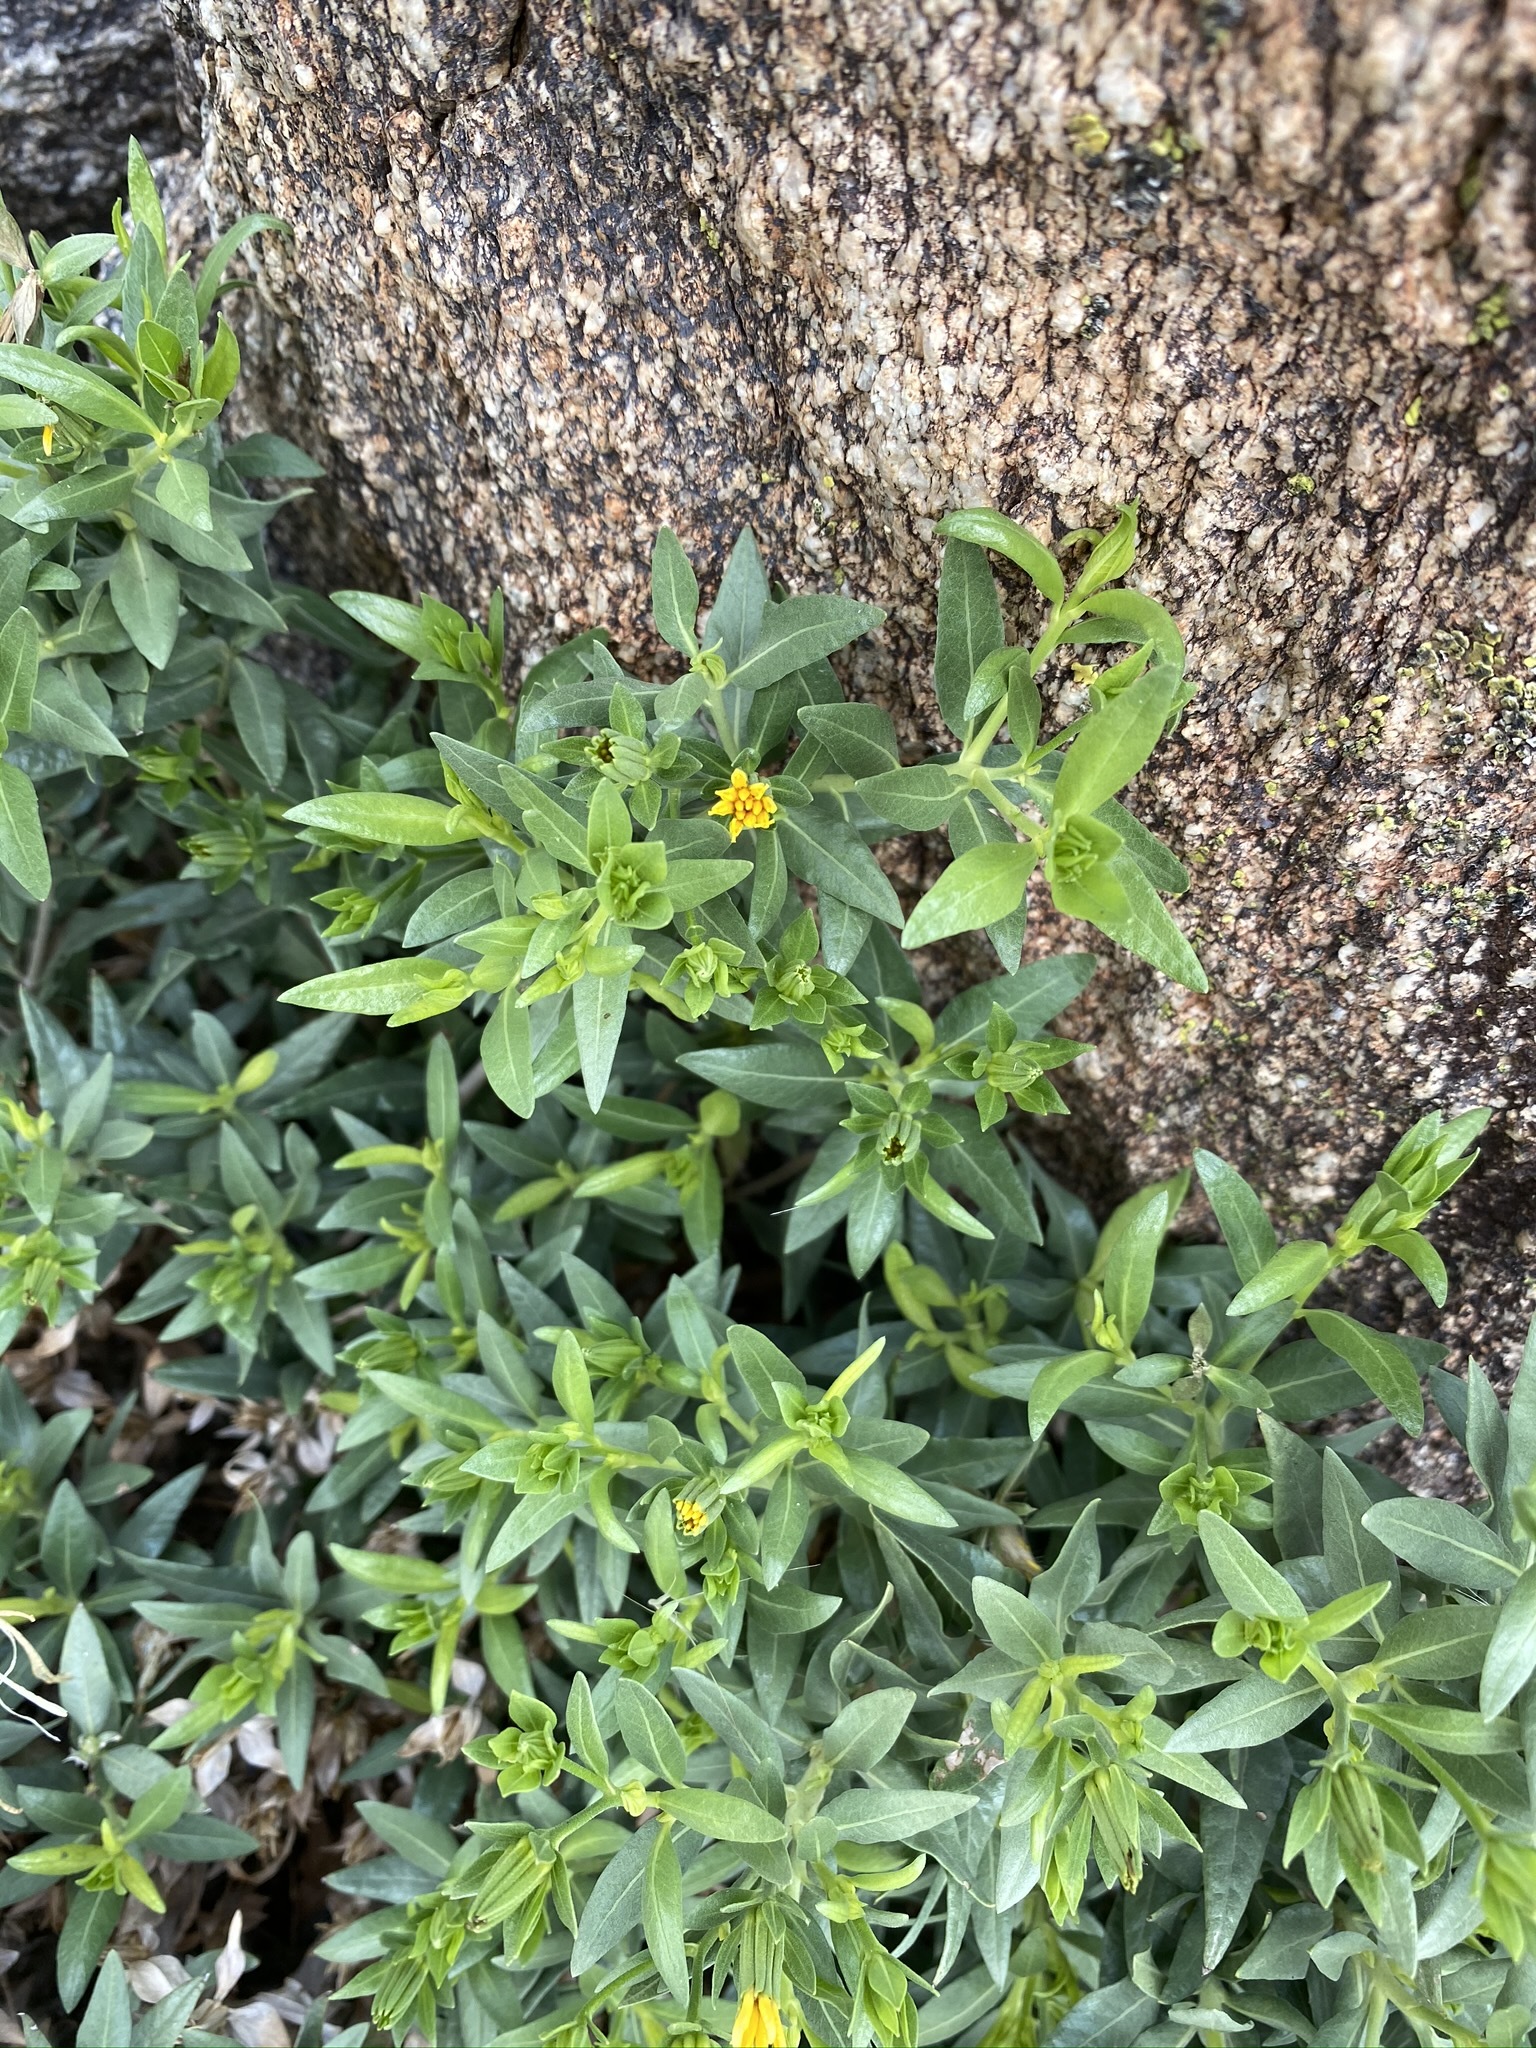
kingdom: Plantae
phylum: Tracheophyta
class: Magnoliopsida
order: Asterales
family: Asteraceae
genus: Trixis
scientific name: Trixis californica
